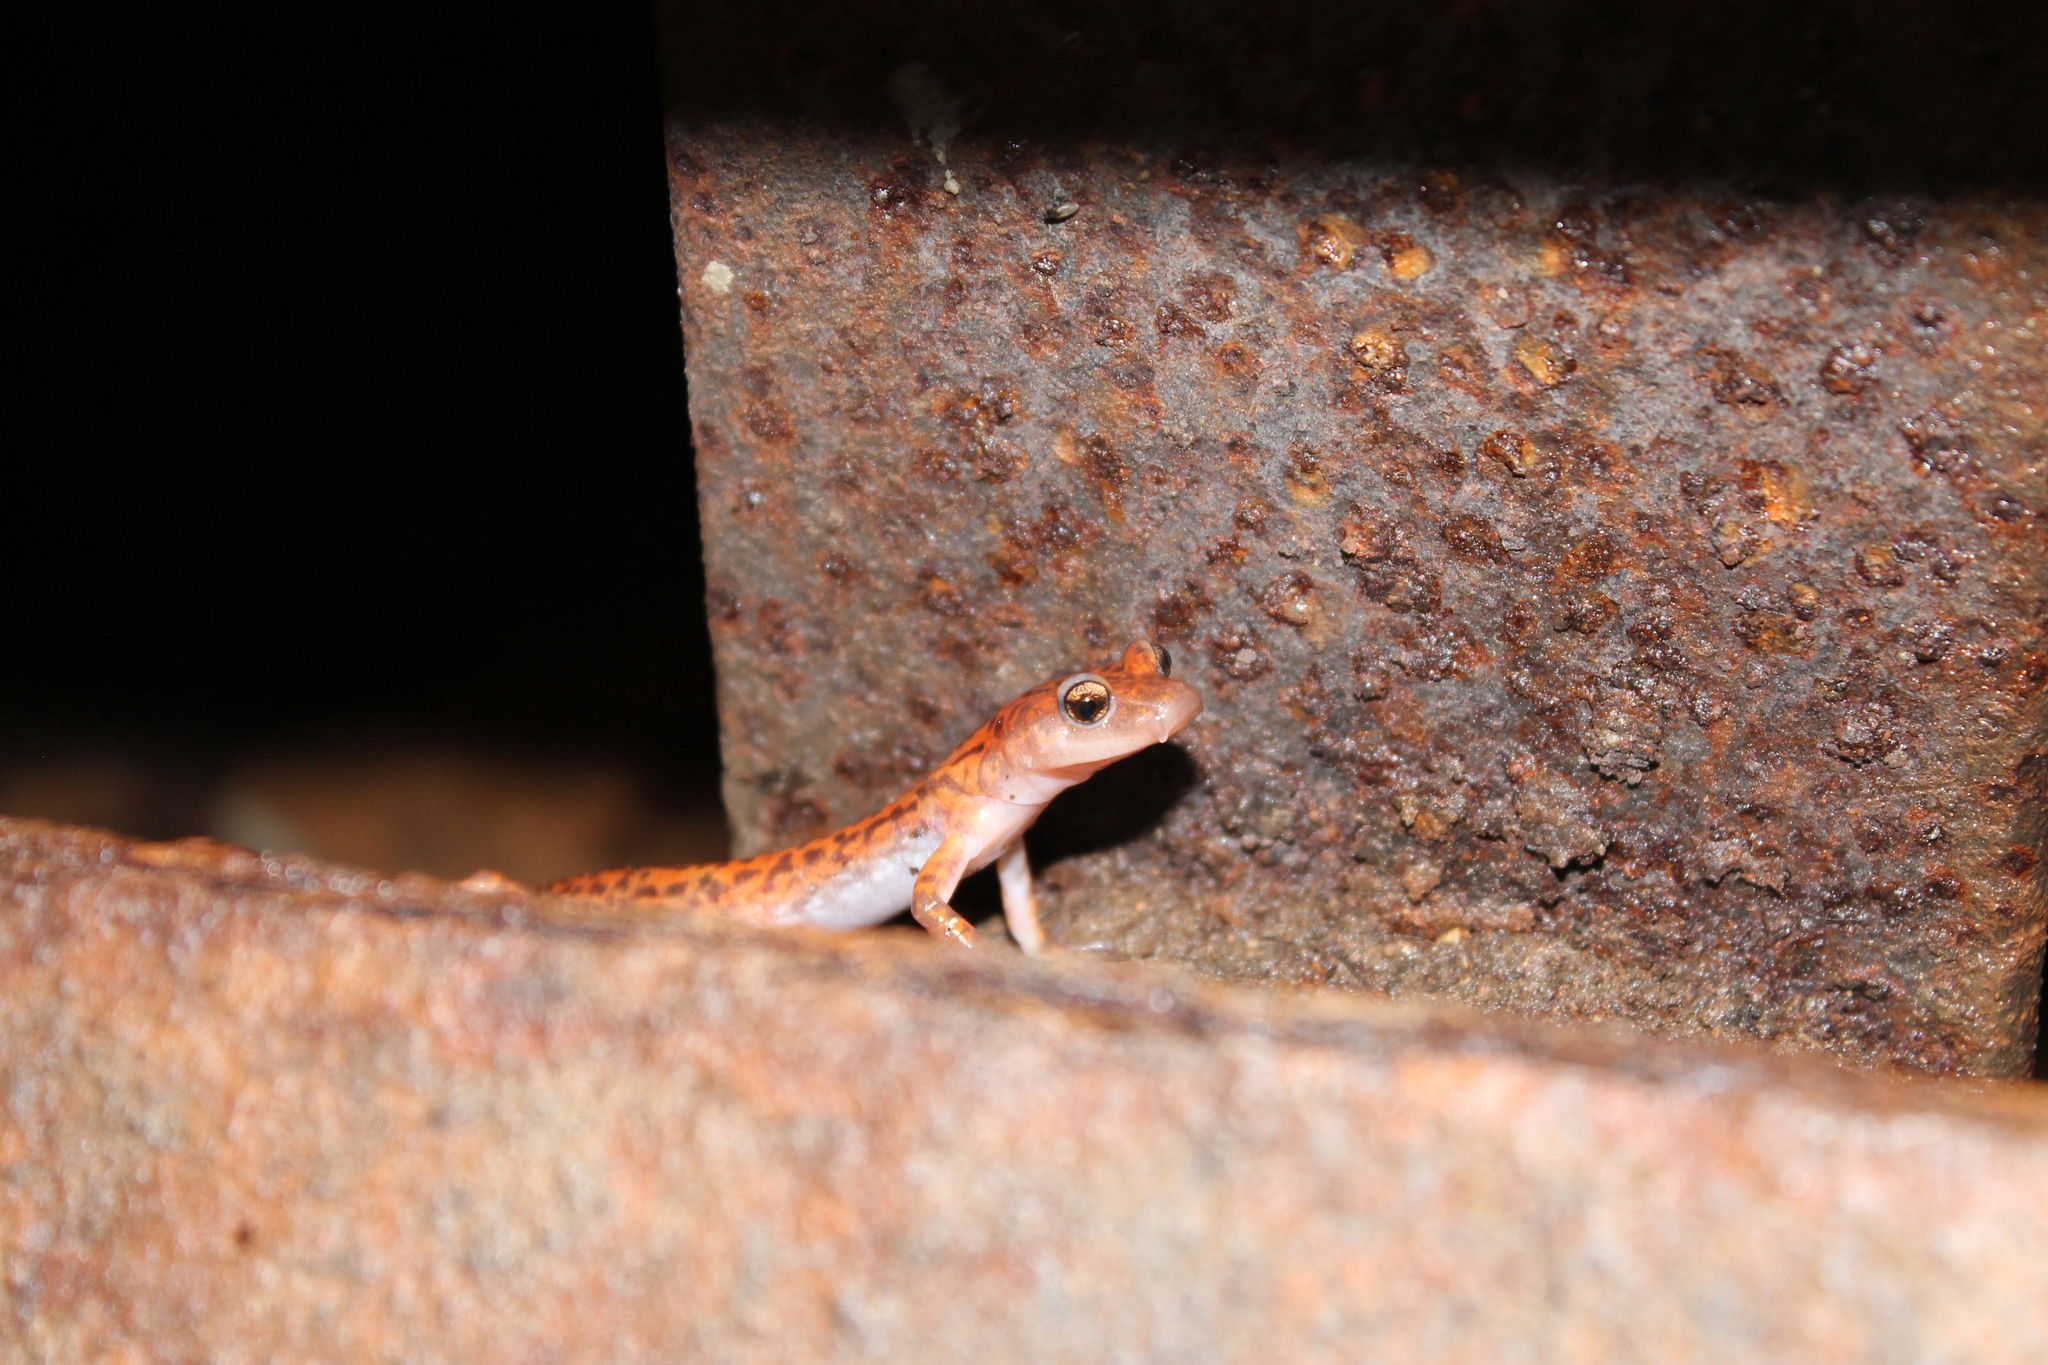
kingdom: Animalia
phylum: Chordata
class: Amphibia
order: Caudata
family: Plethodontidae
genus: Eurycea
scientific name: Eurycea lucifuga
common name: Cave salamander
